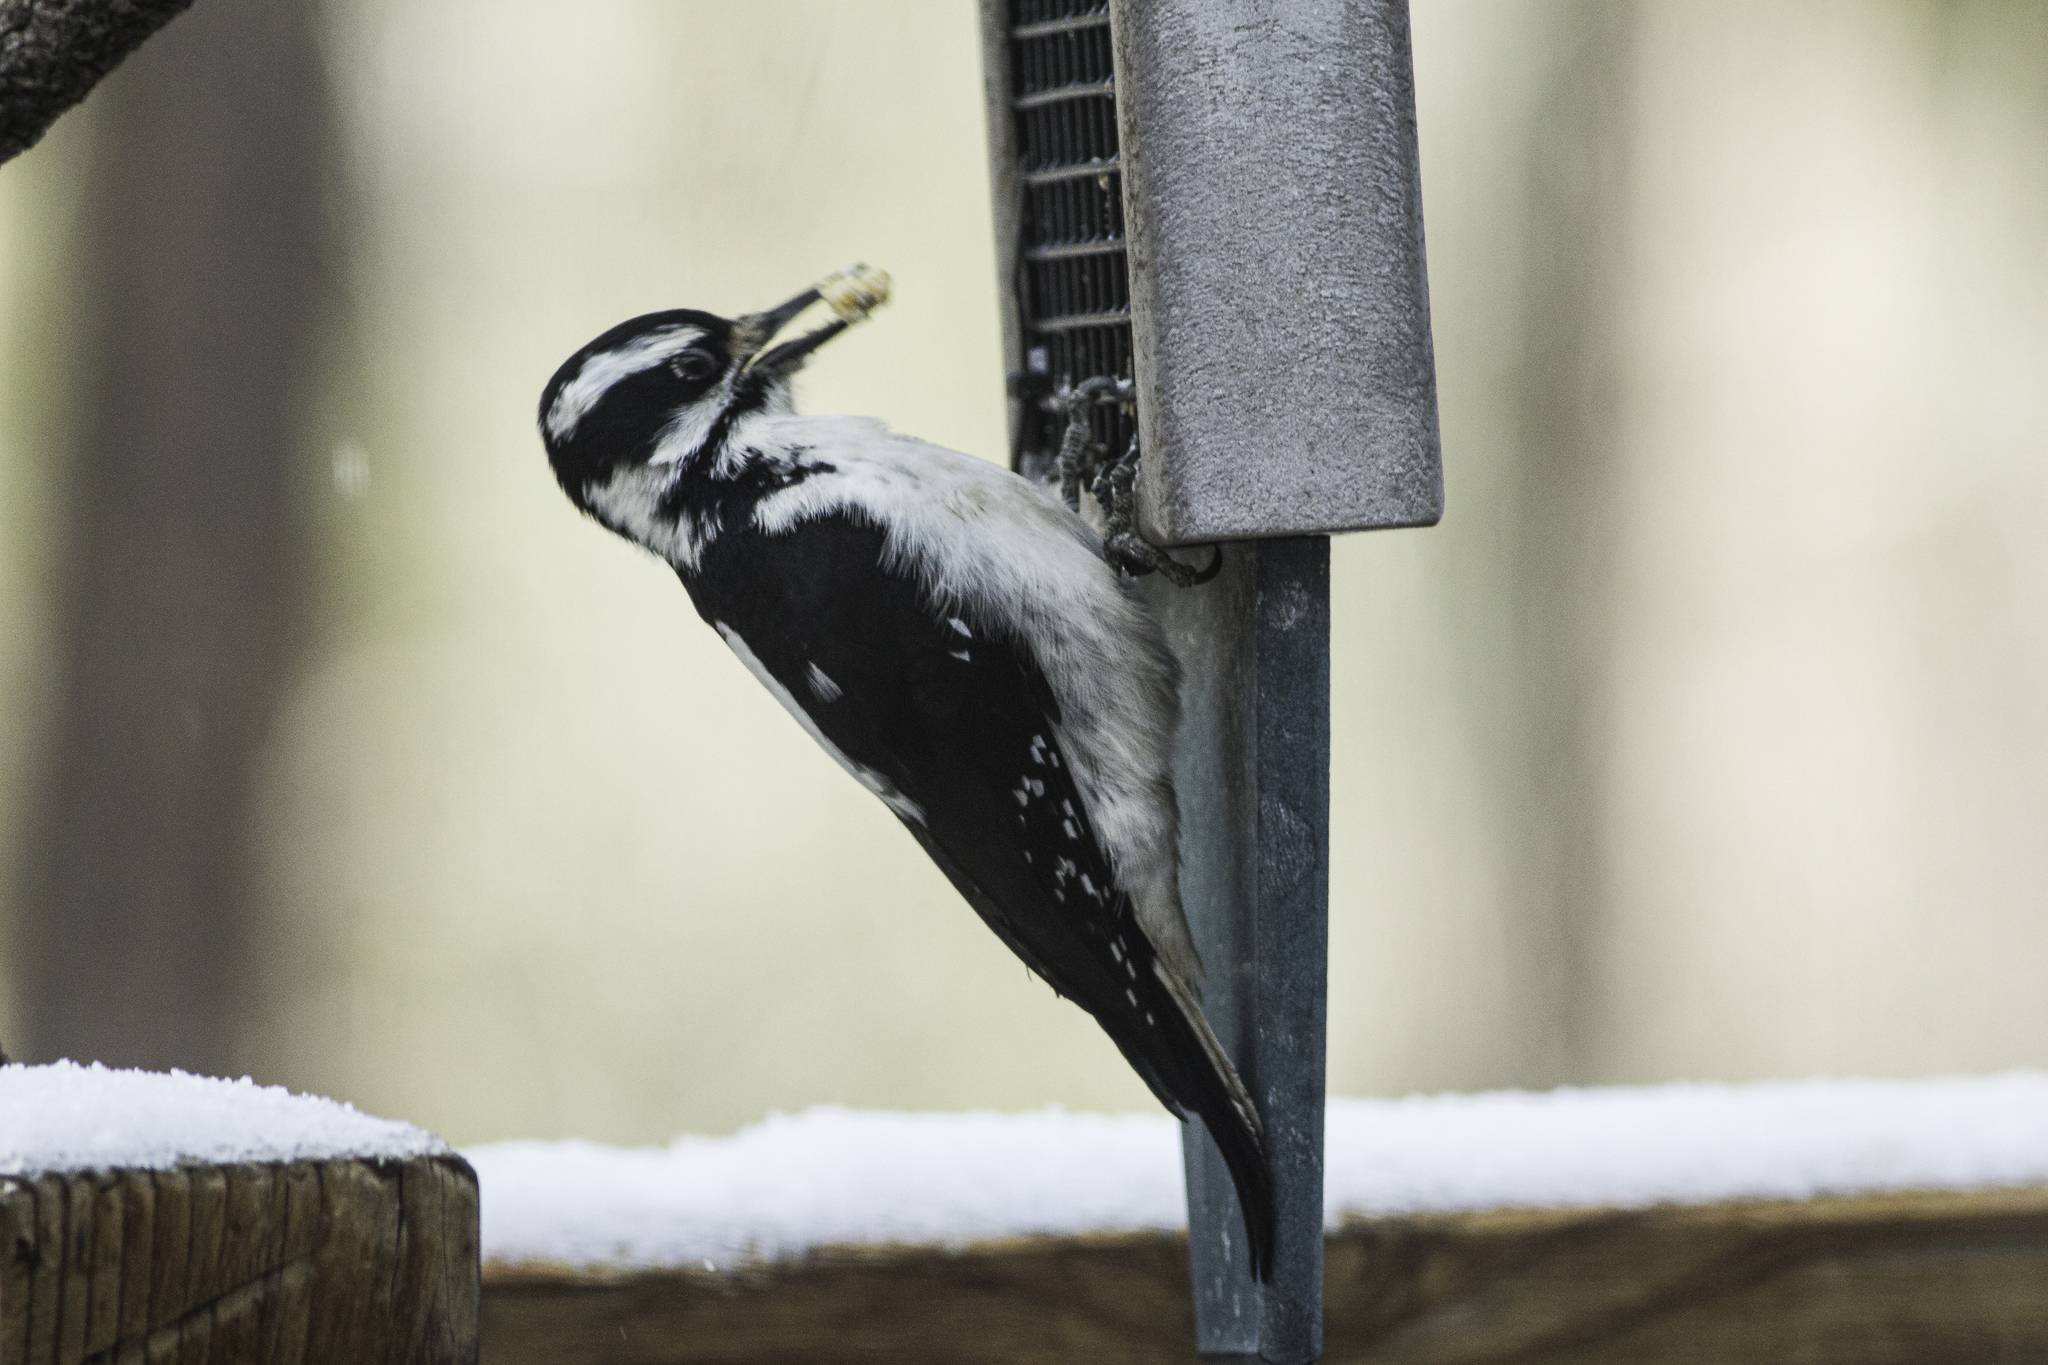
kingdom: Animalia
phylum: Chordata
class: Aves
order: Piciformes
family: Picidae
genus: Leuconotopicus
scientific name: Leuconotopicus villosus
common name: Hairy woodpecker
